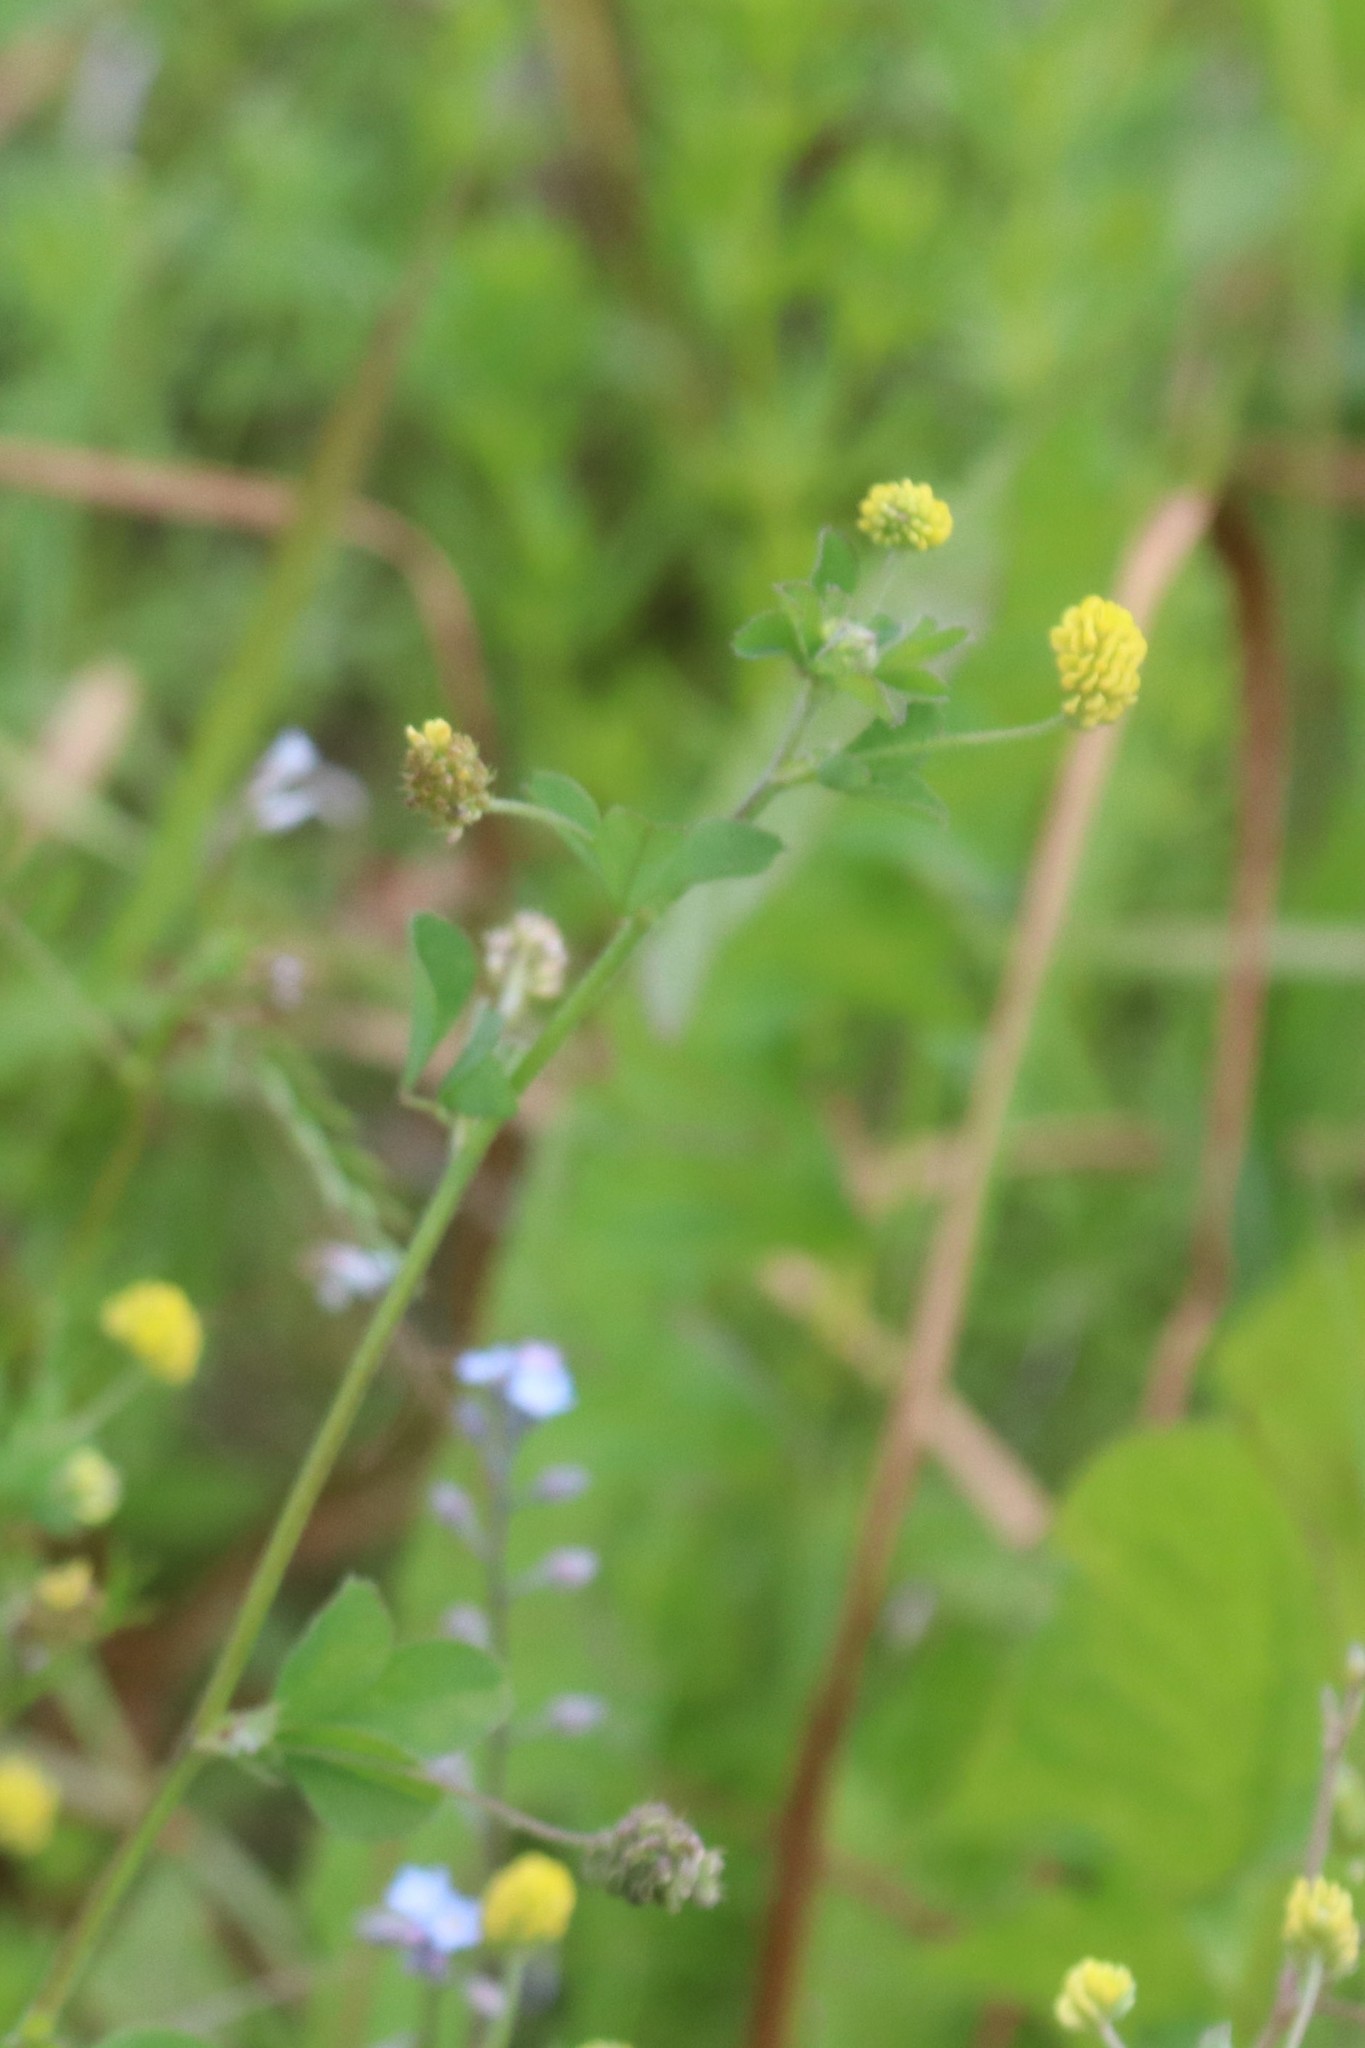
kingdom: Plantae
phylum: Tracheophyta
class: Magnoliopsida
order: Fabales
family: Fabaceae
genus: Medicago
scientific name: Medicago lupulina
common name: Black medick
